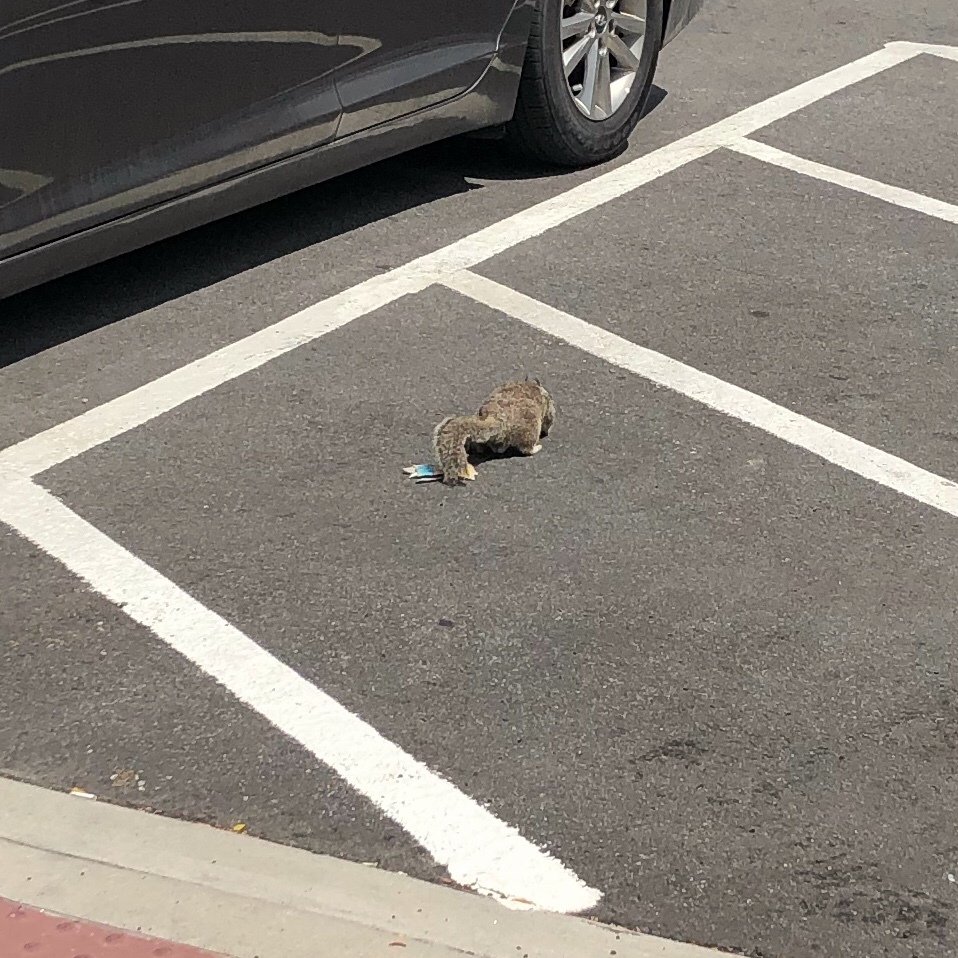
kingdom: Animalia
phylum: Chordata
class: Mammalia
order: Rodentia
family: Sciuridae
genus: Otospermophilus
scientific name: Otospermophilus beecheyi
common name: California ground squirrel
